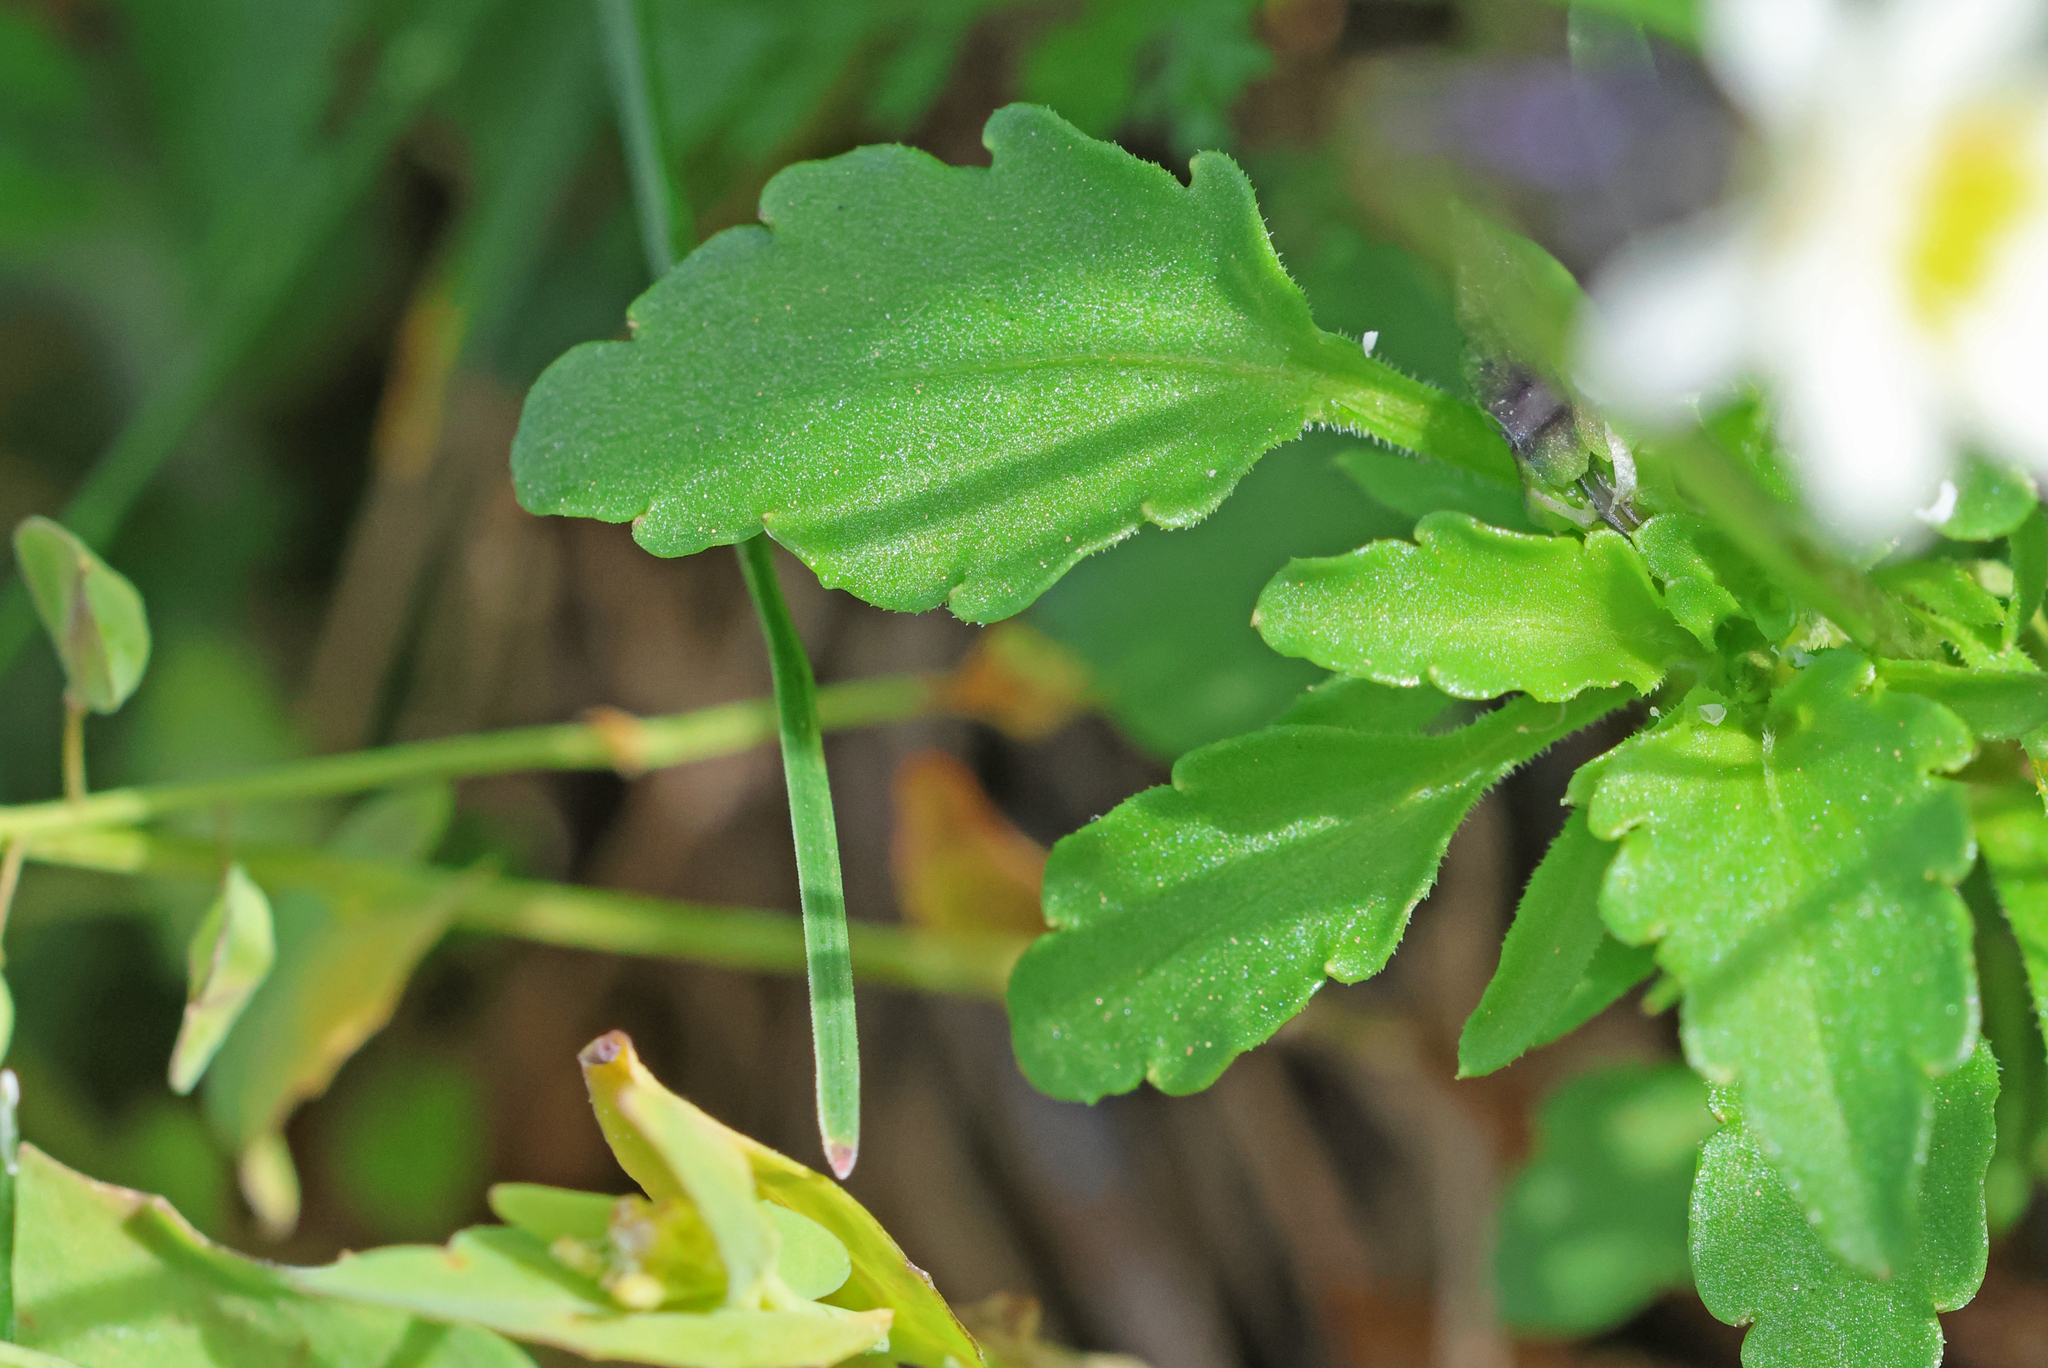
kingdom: Plantae
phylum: Tracheophyta
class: Magnoliopsida
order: Malpighiales
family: Violaceae
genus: Viola
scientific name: Viola arvensis
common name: Field pansy
